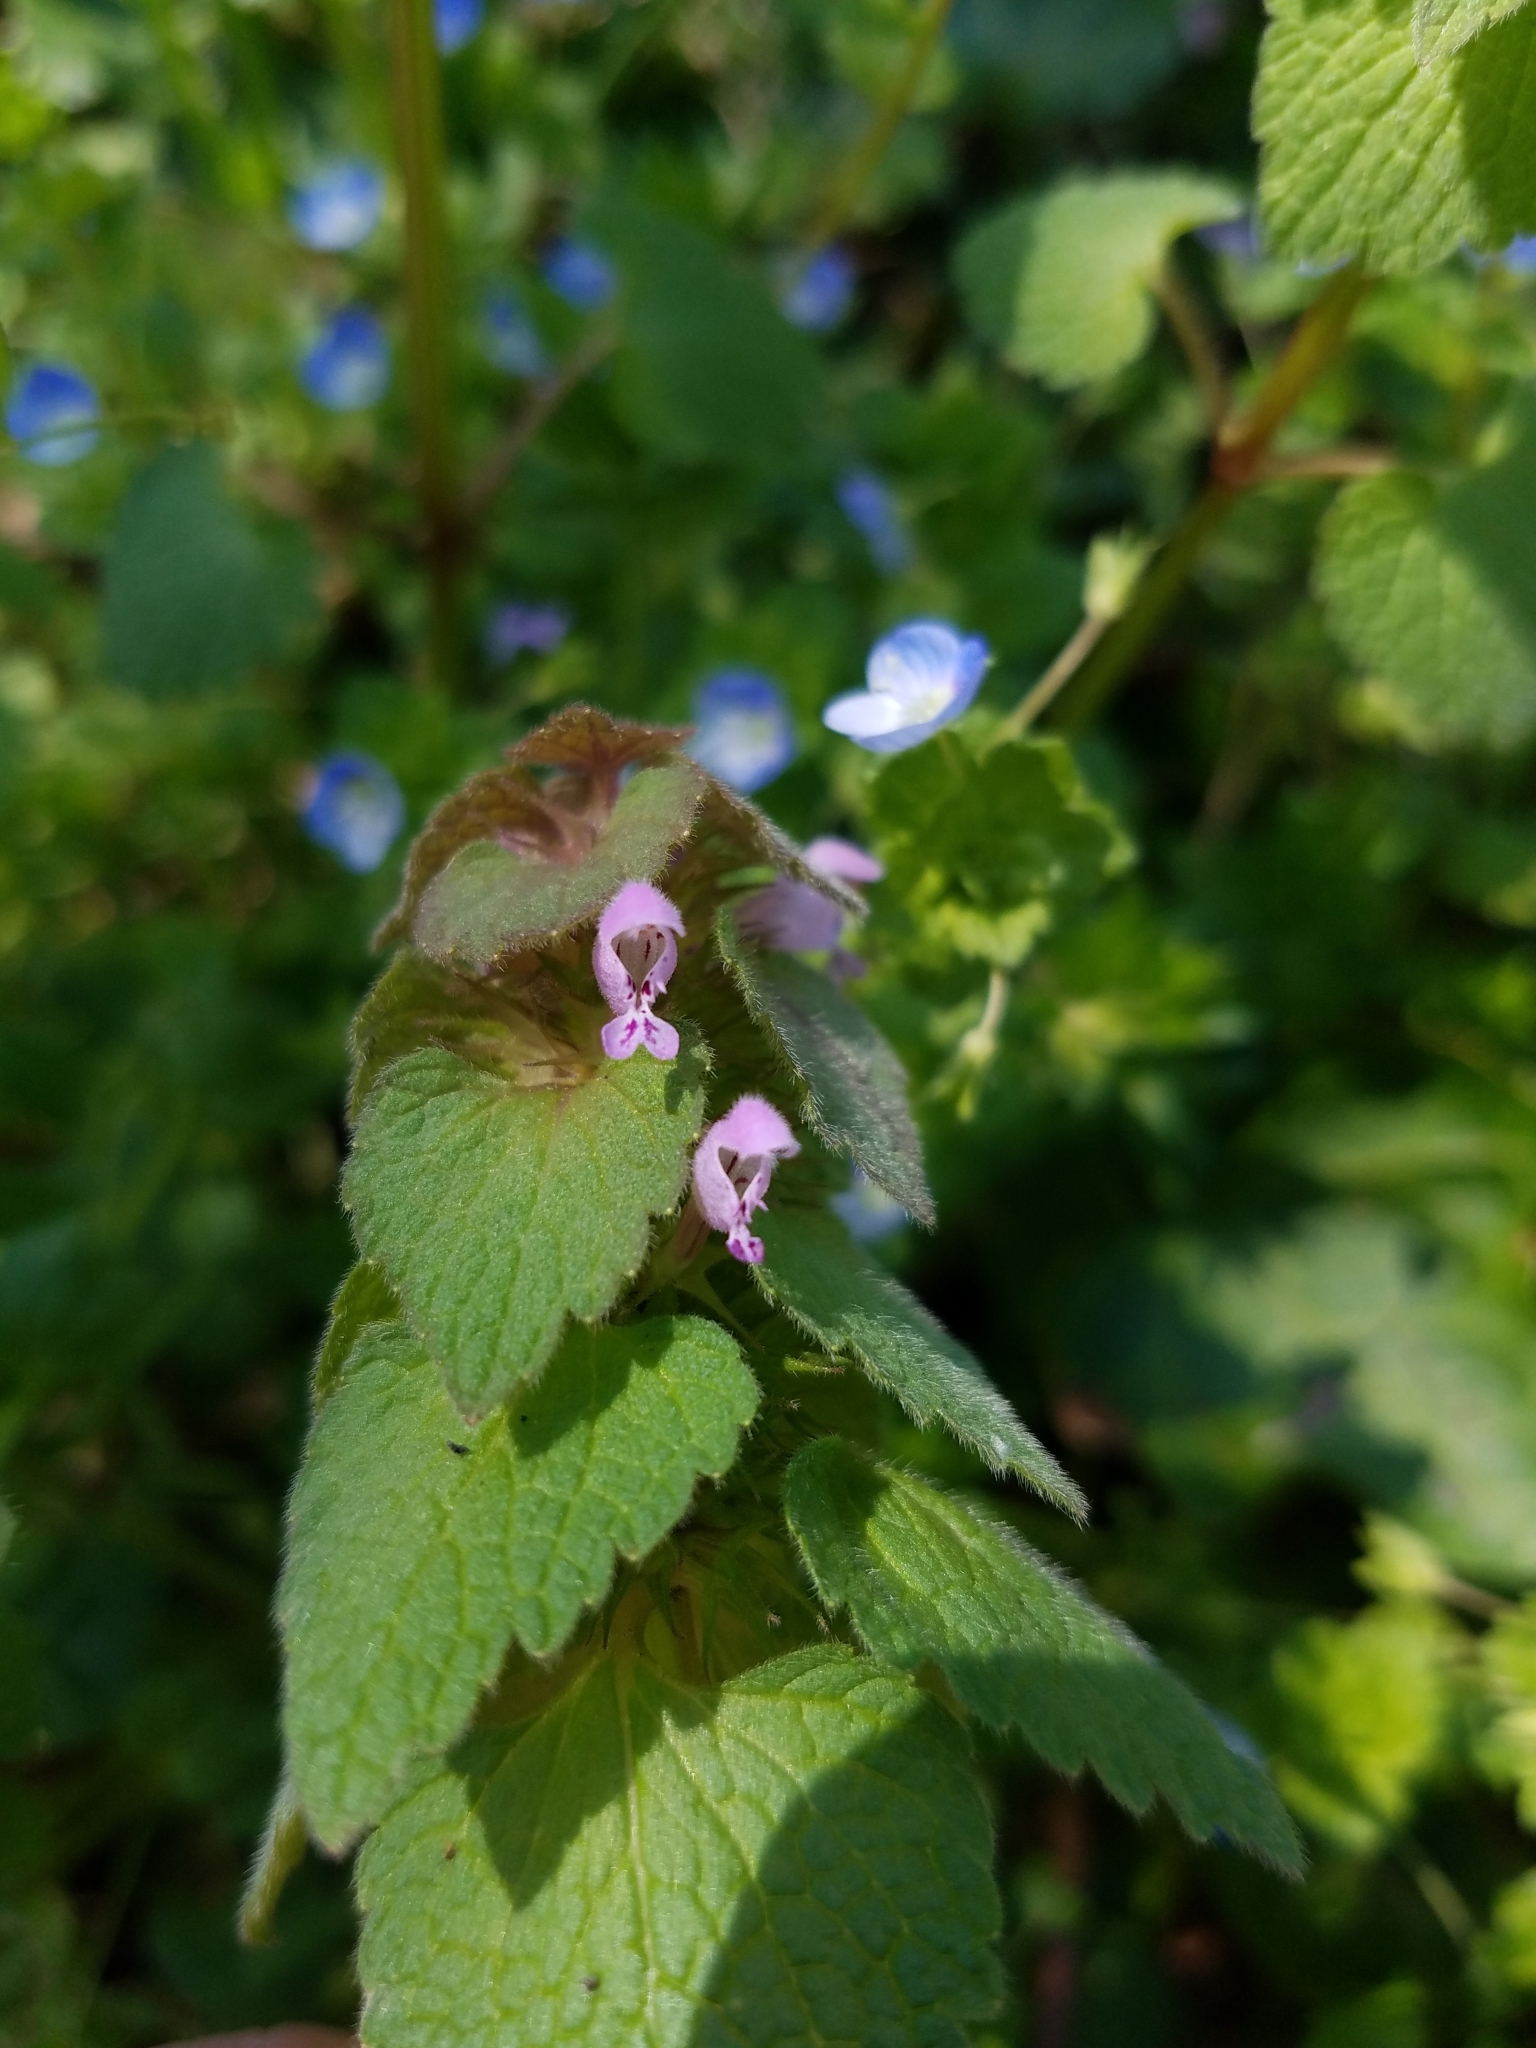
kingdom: Plantae
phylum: Tracheophyta
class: Magnoliopsida
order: Lamiales
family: Lamiaceae
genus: Lamium
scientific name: Lamium purpureum
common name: Red dead-nettle
